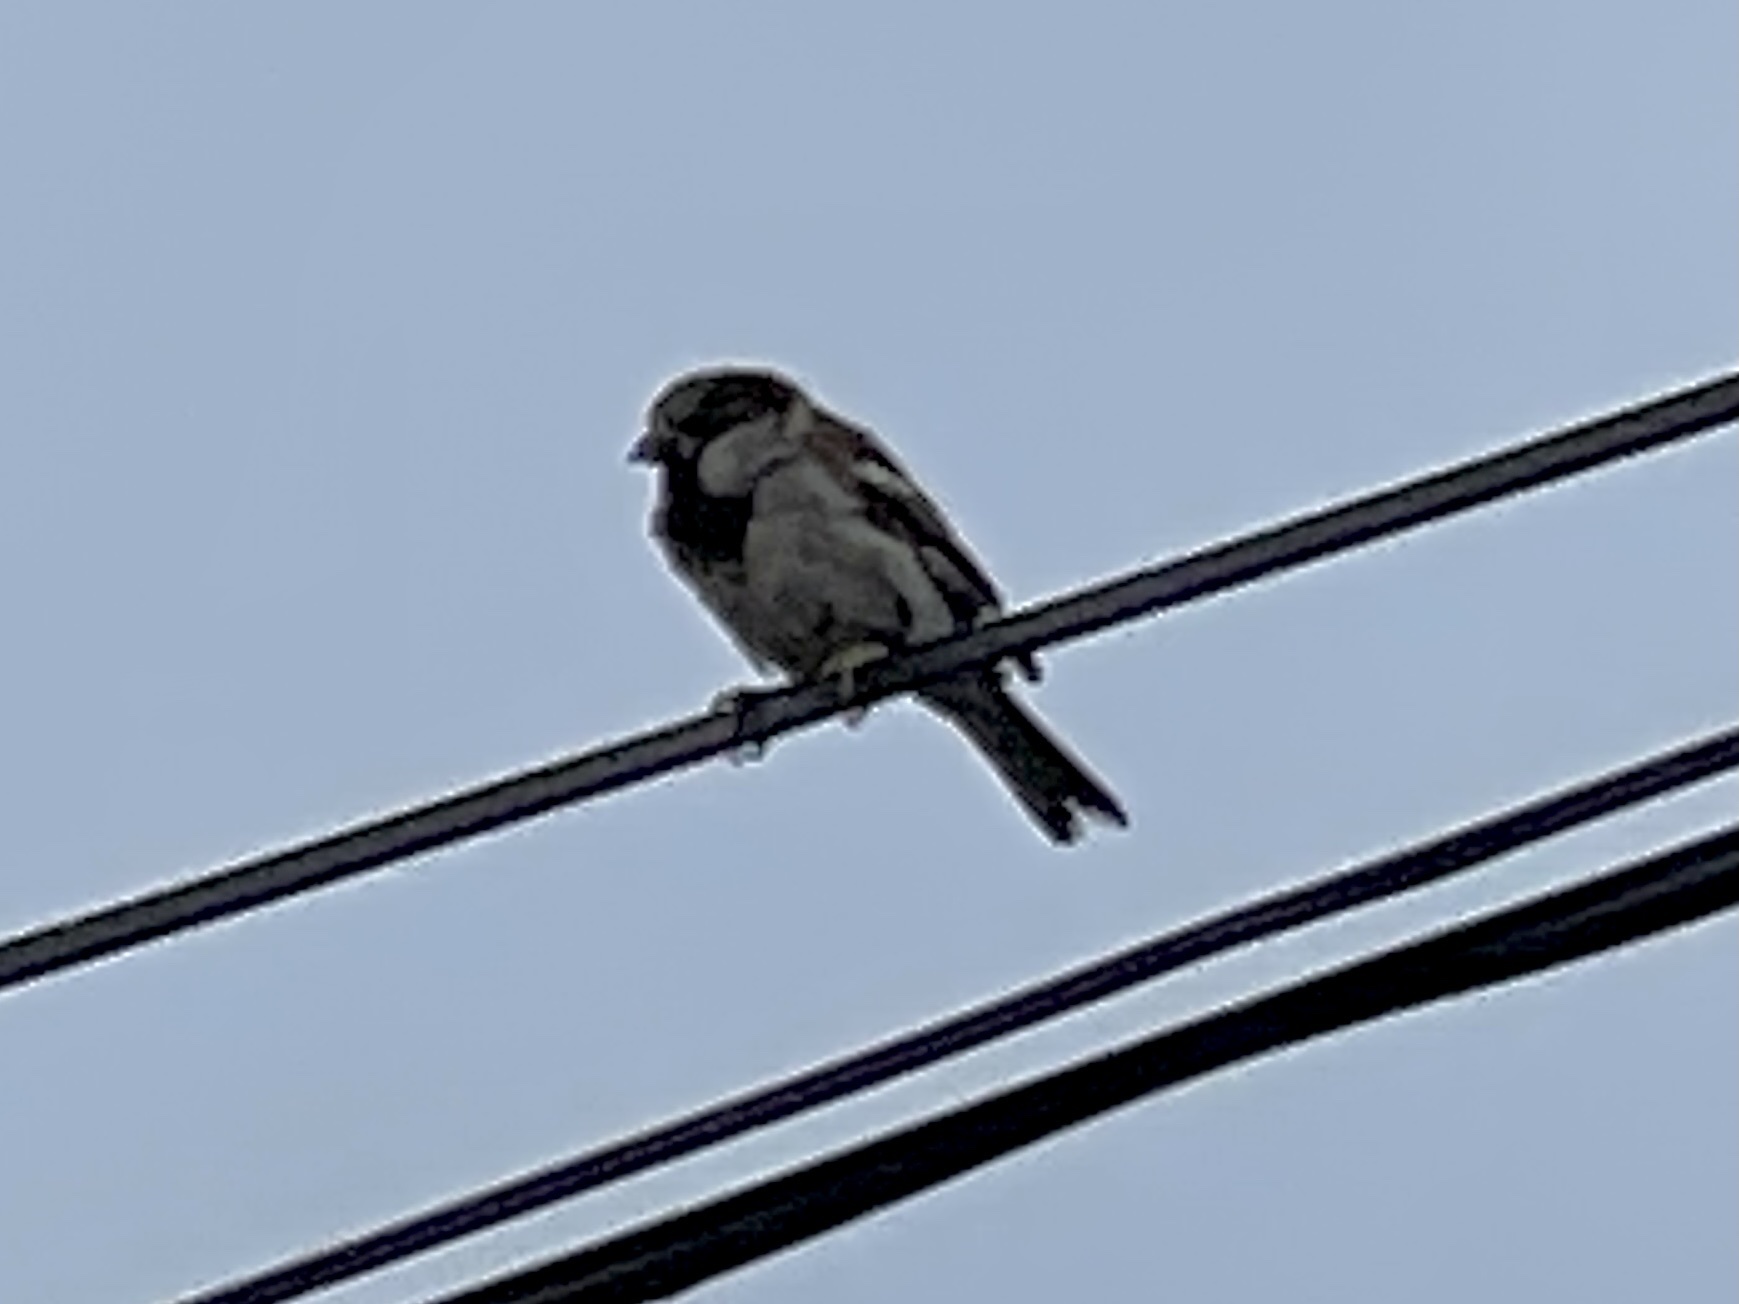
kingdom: Animalia
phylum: Chordata
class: Aves
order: Passeriformes
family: Passeridae
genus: Passer
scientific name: Passer domesticus
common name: House sparrow
